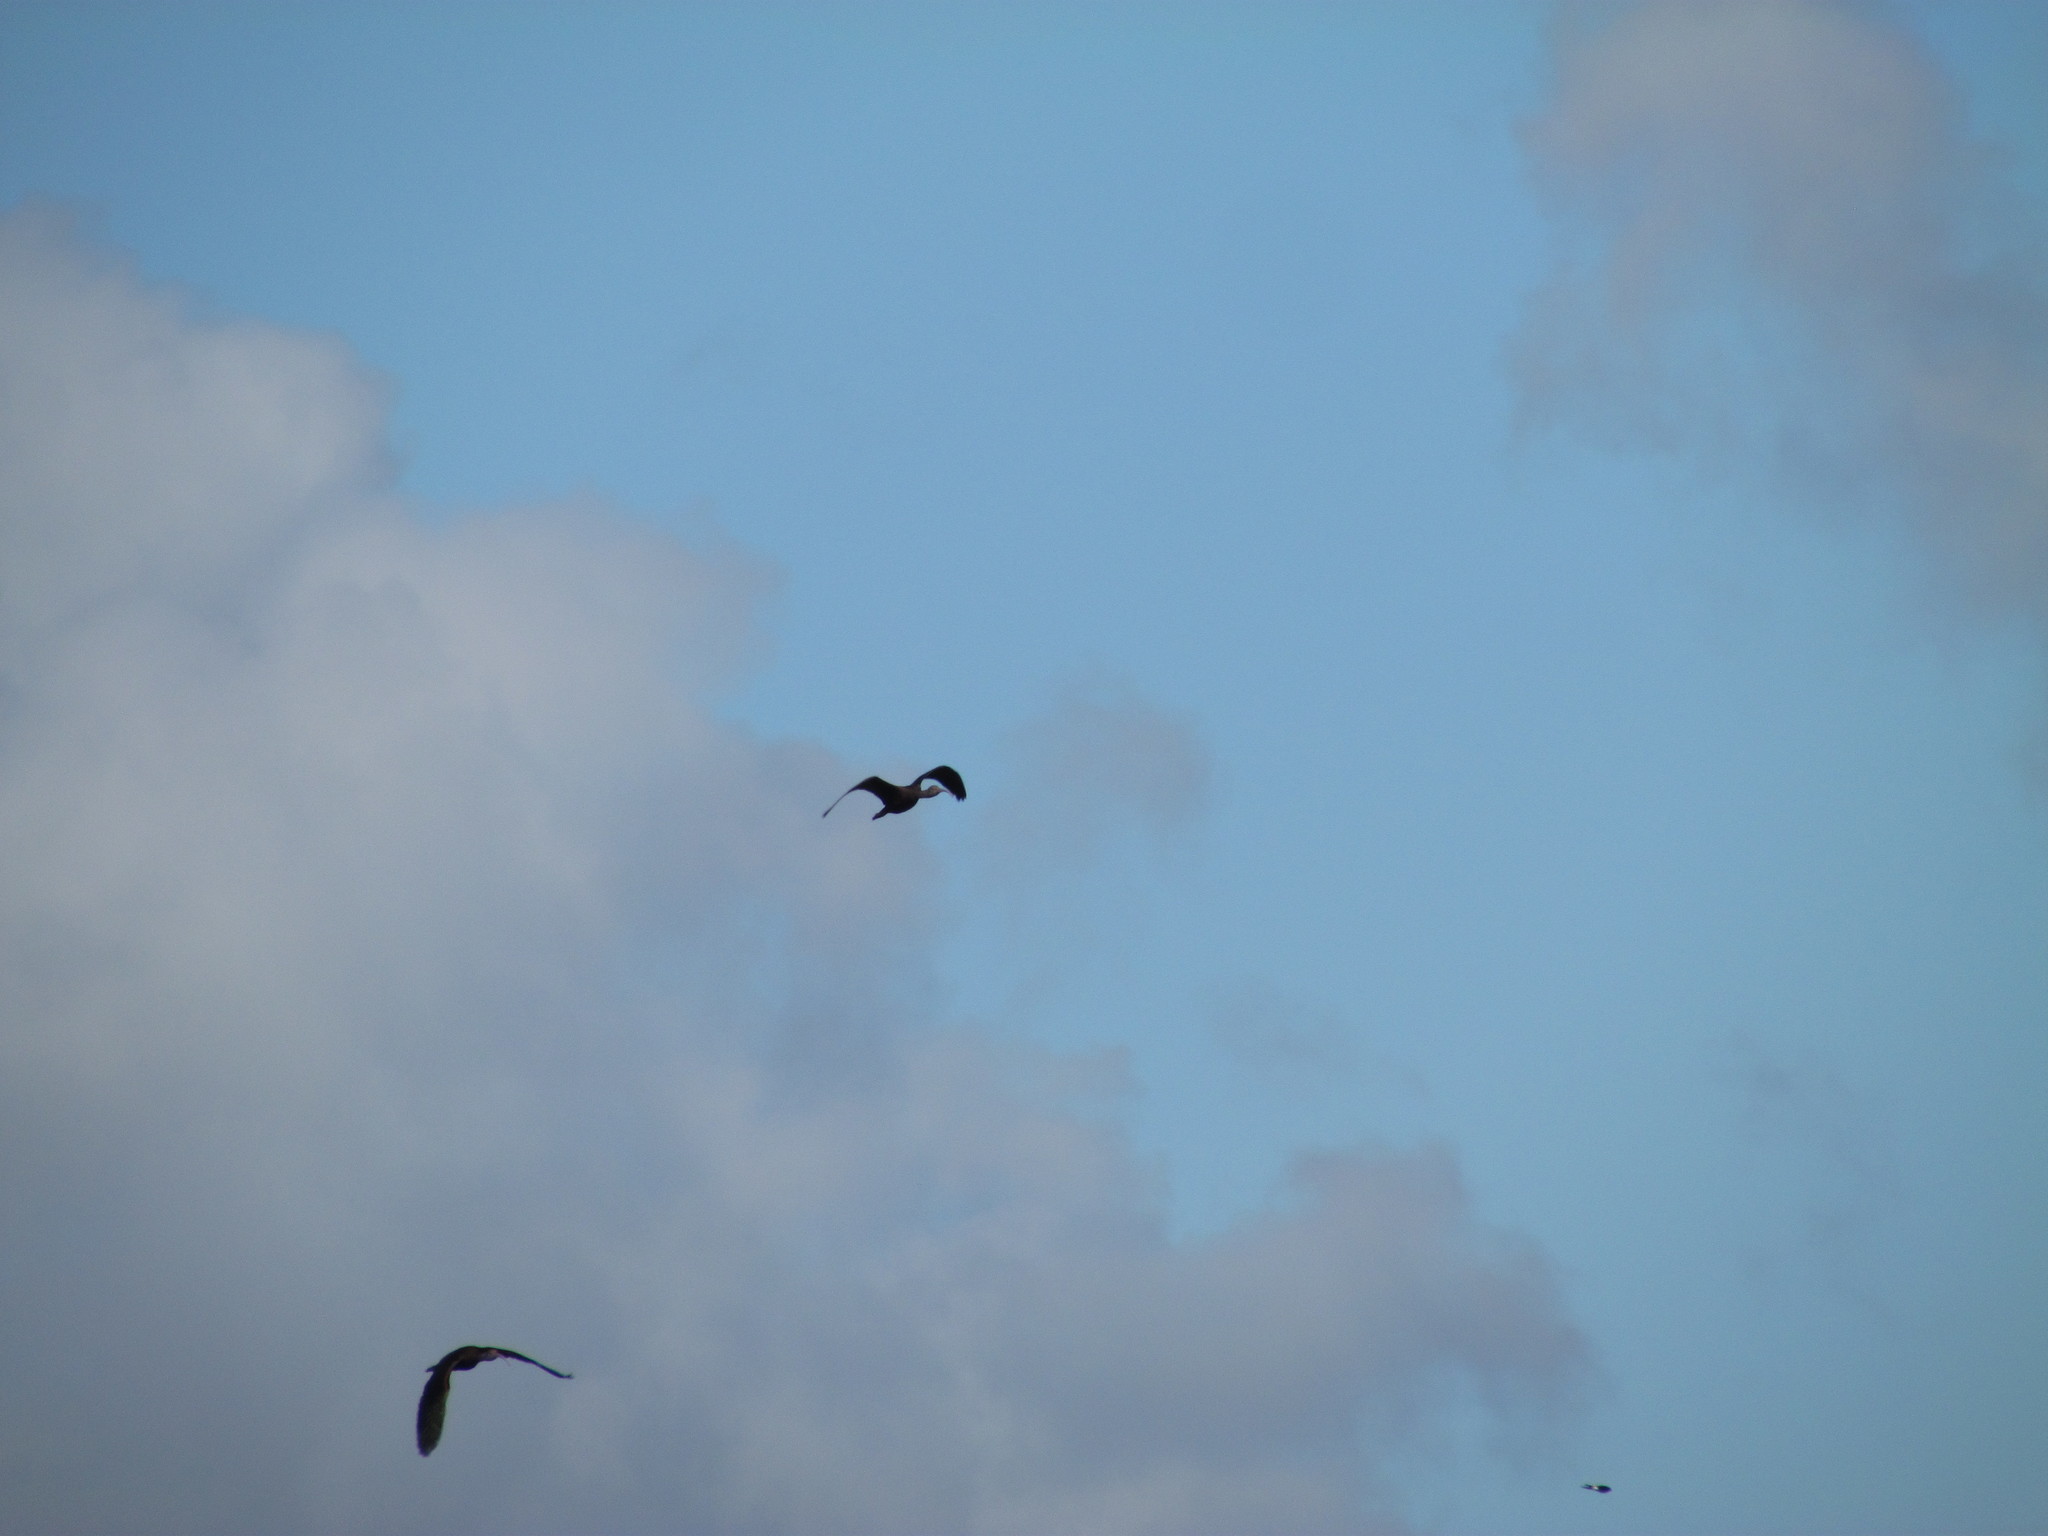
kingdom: Animalia
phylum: Chordata
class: Aves
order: Pelecaniformes
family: Threskiornithidae
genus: Plegadis
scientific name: Plegadis chihi
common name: White-faced ibis
